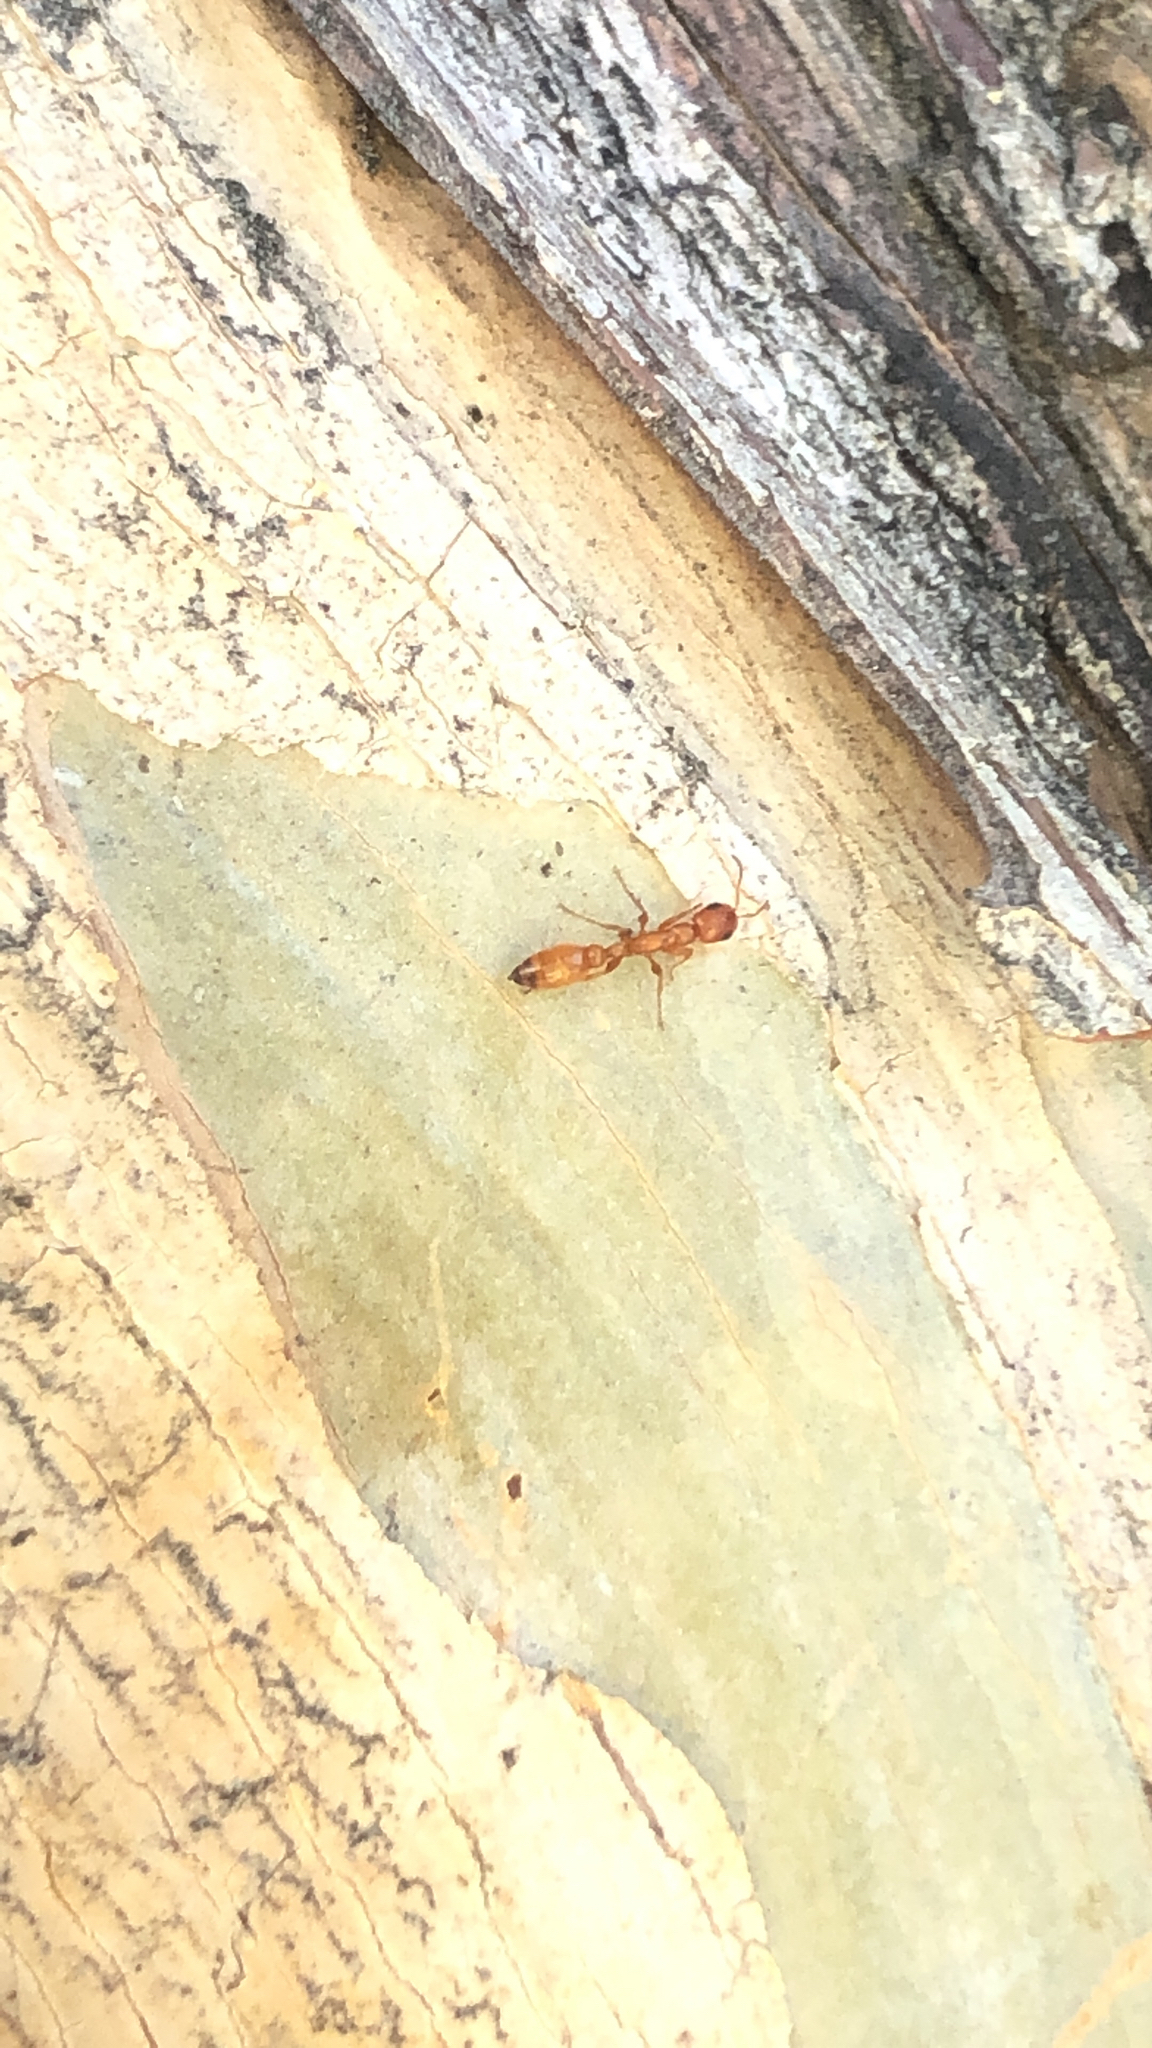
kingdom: Animalia
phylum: Arthropoda
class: Insecta
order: Hymenoptera
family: Formicidae
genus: Pseudomyrmex
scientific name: Pseudomyrmex apache
